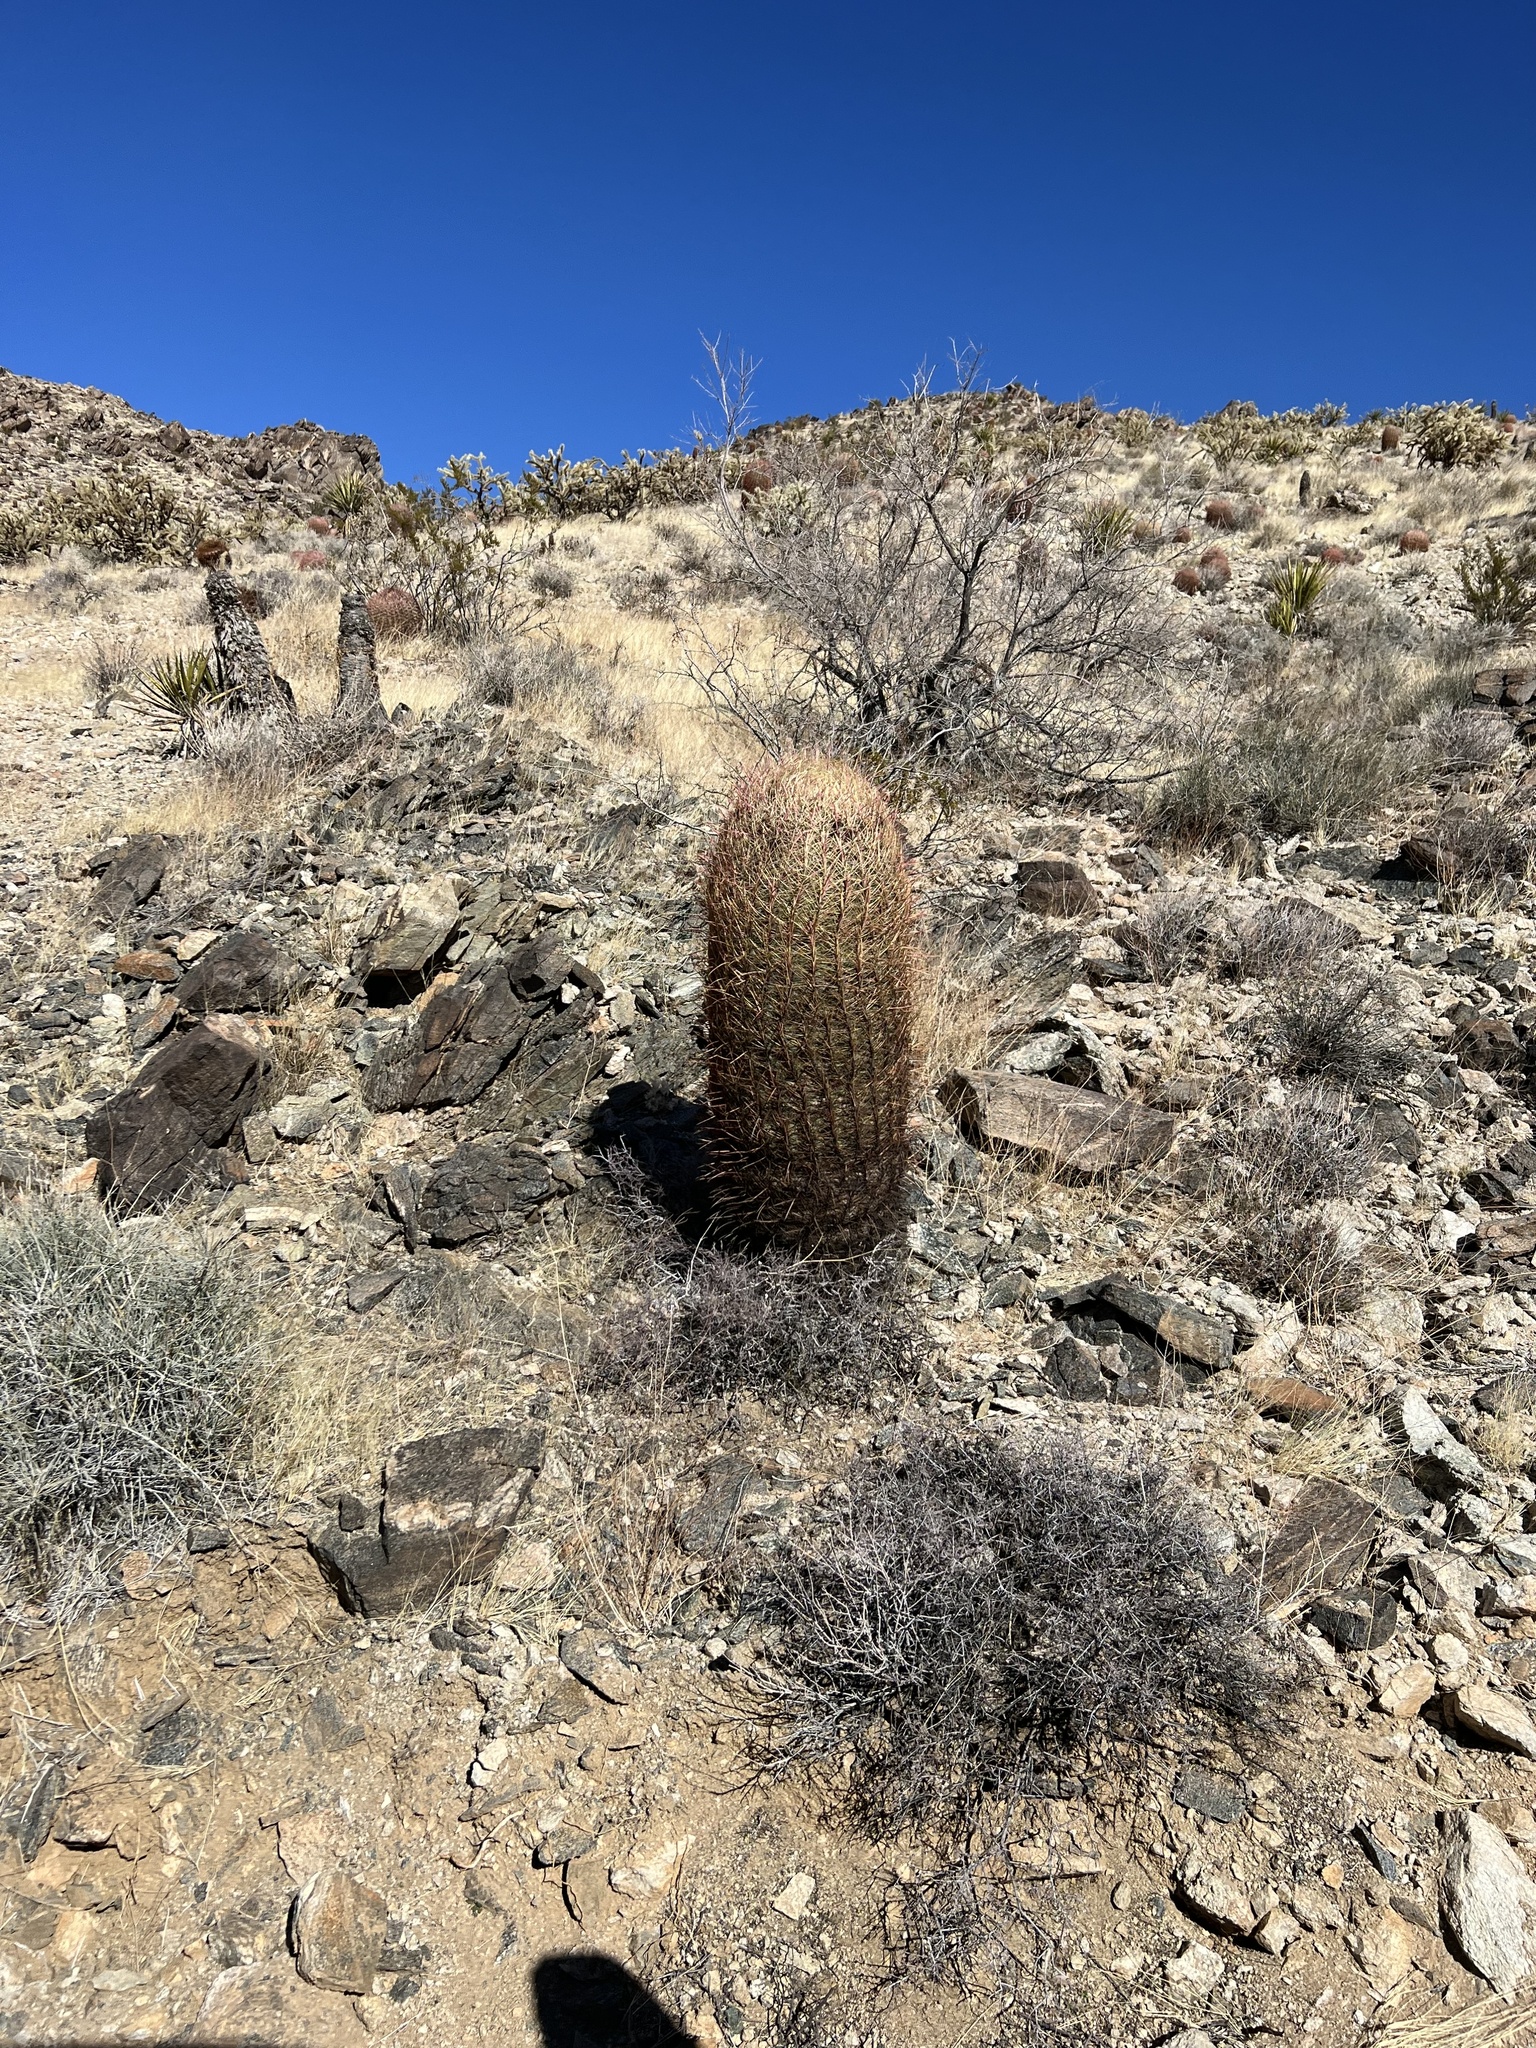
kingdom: Plantae
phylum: Tracheophyta
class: Magnoliopsida
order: Caryophyllales
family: Cactaceae
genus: Ferocactus
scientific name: Ferocactus cylindraceus
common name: California barrel cactus
